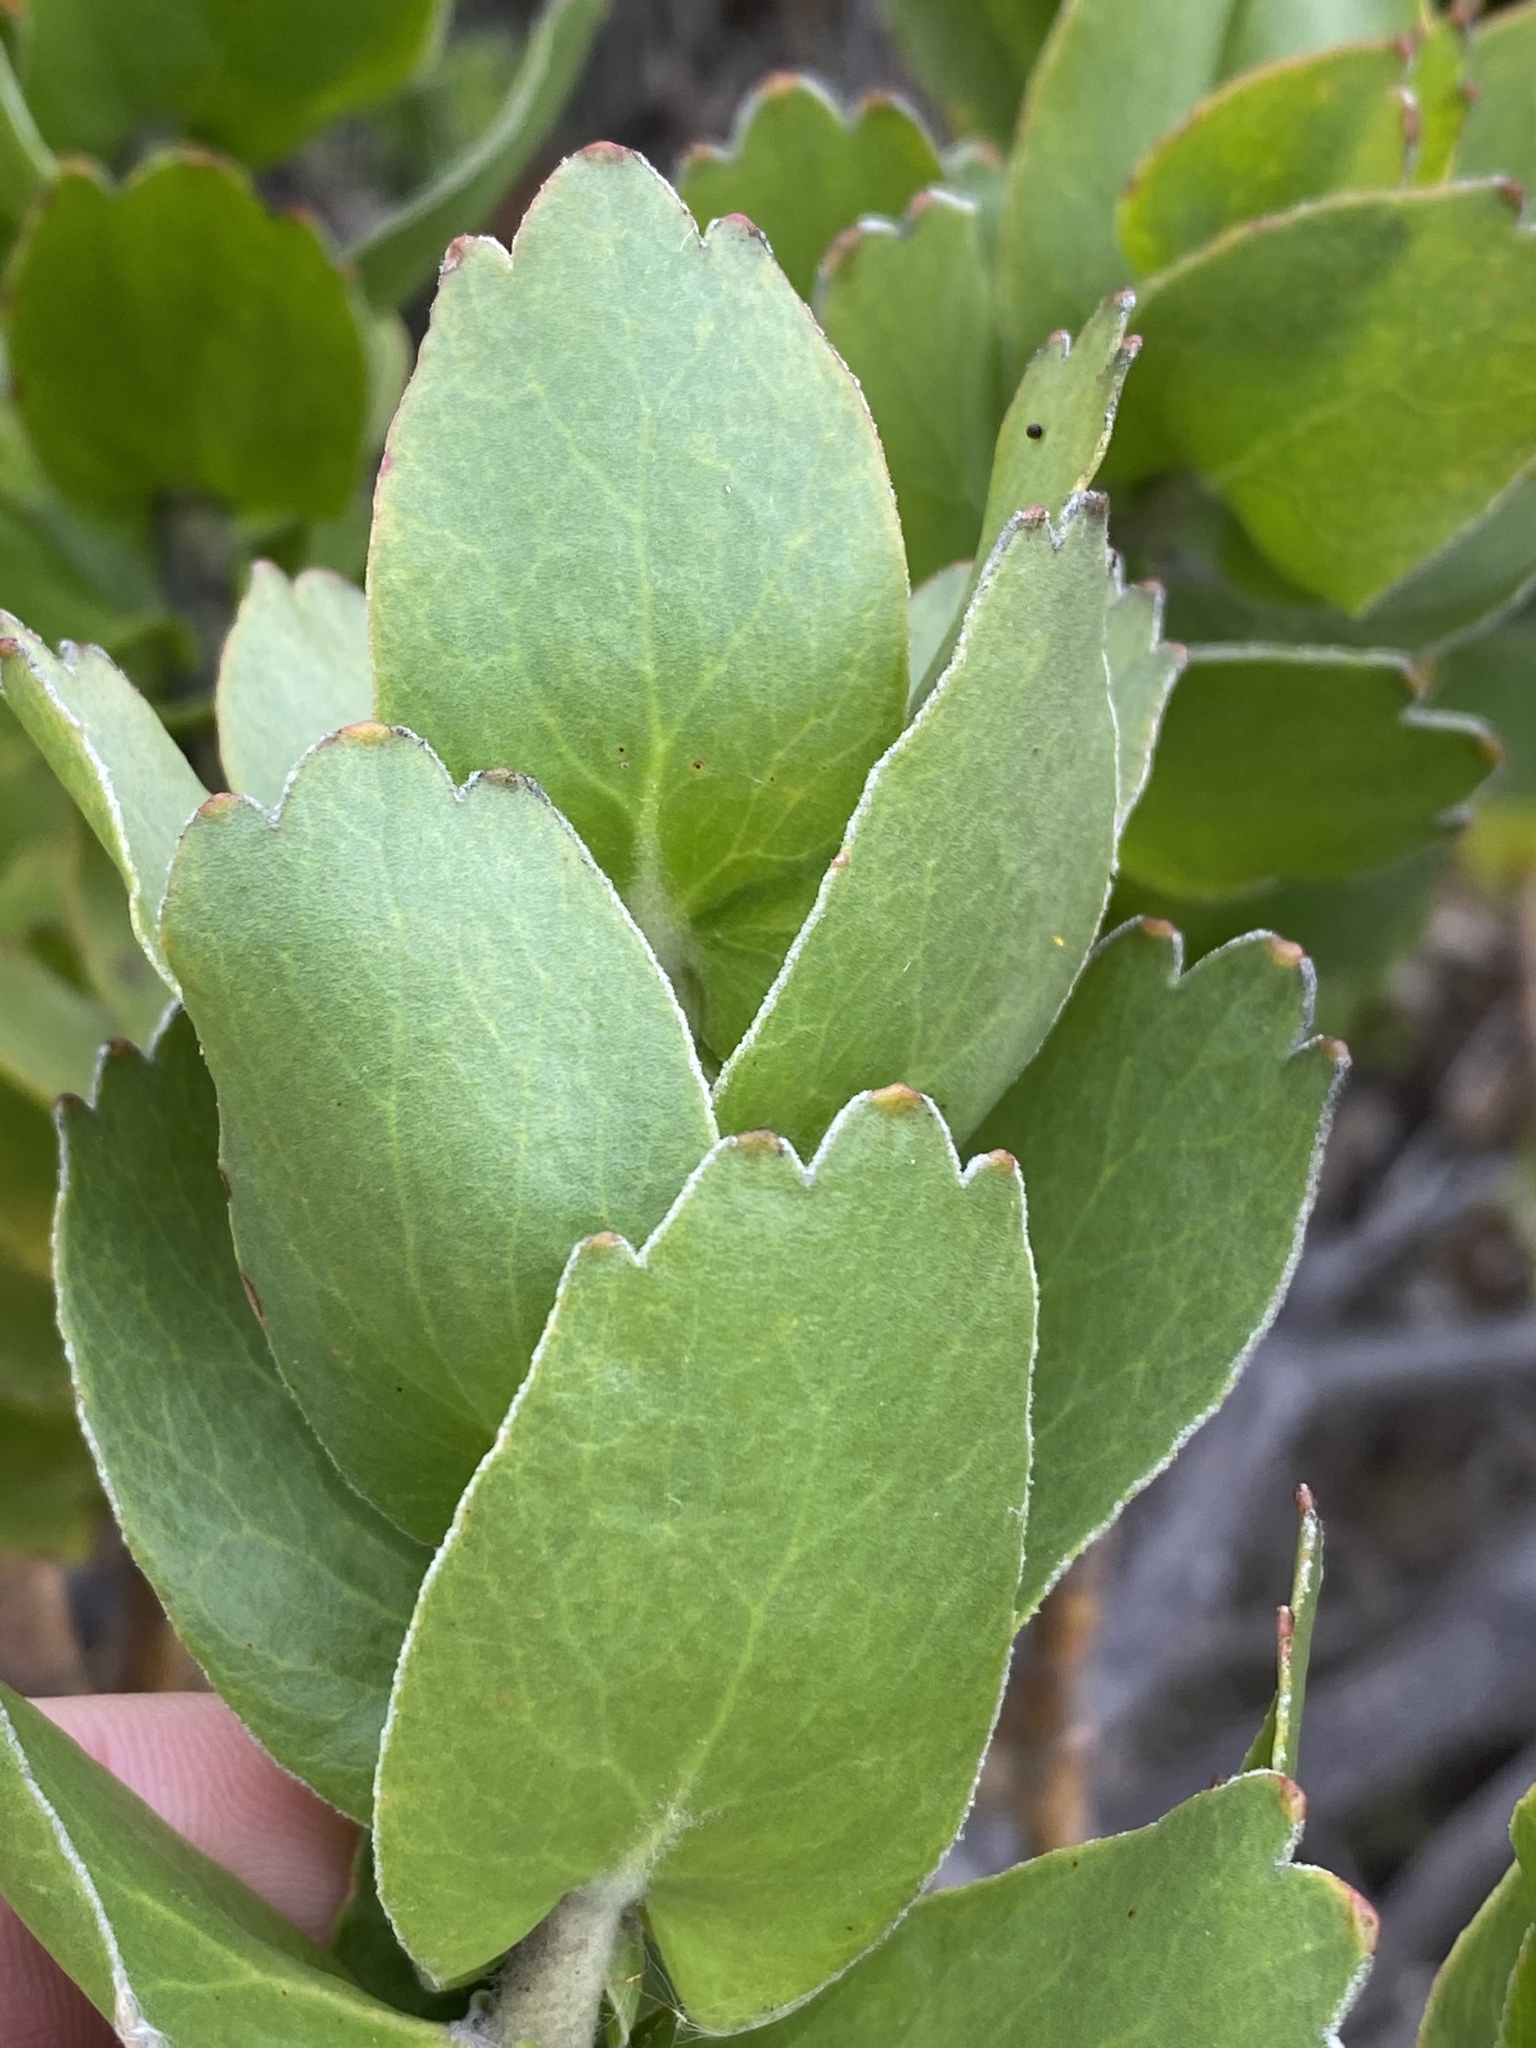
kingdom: Plantae
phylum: Tracheophyta
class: Magnoliopsida
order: Proteales
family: Proteaceae
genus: Leucospermum
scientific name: Leucospermum cordifolium
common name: Red pincushion-protea
